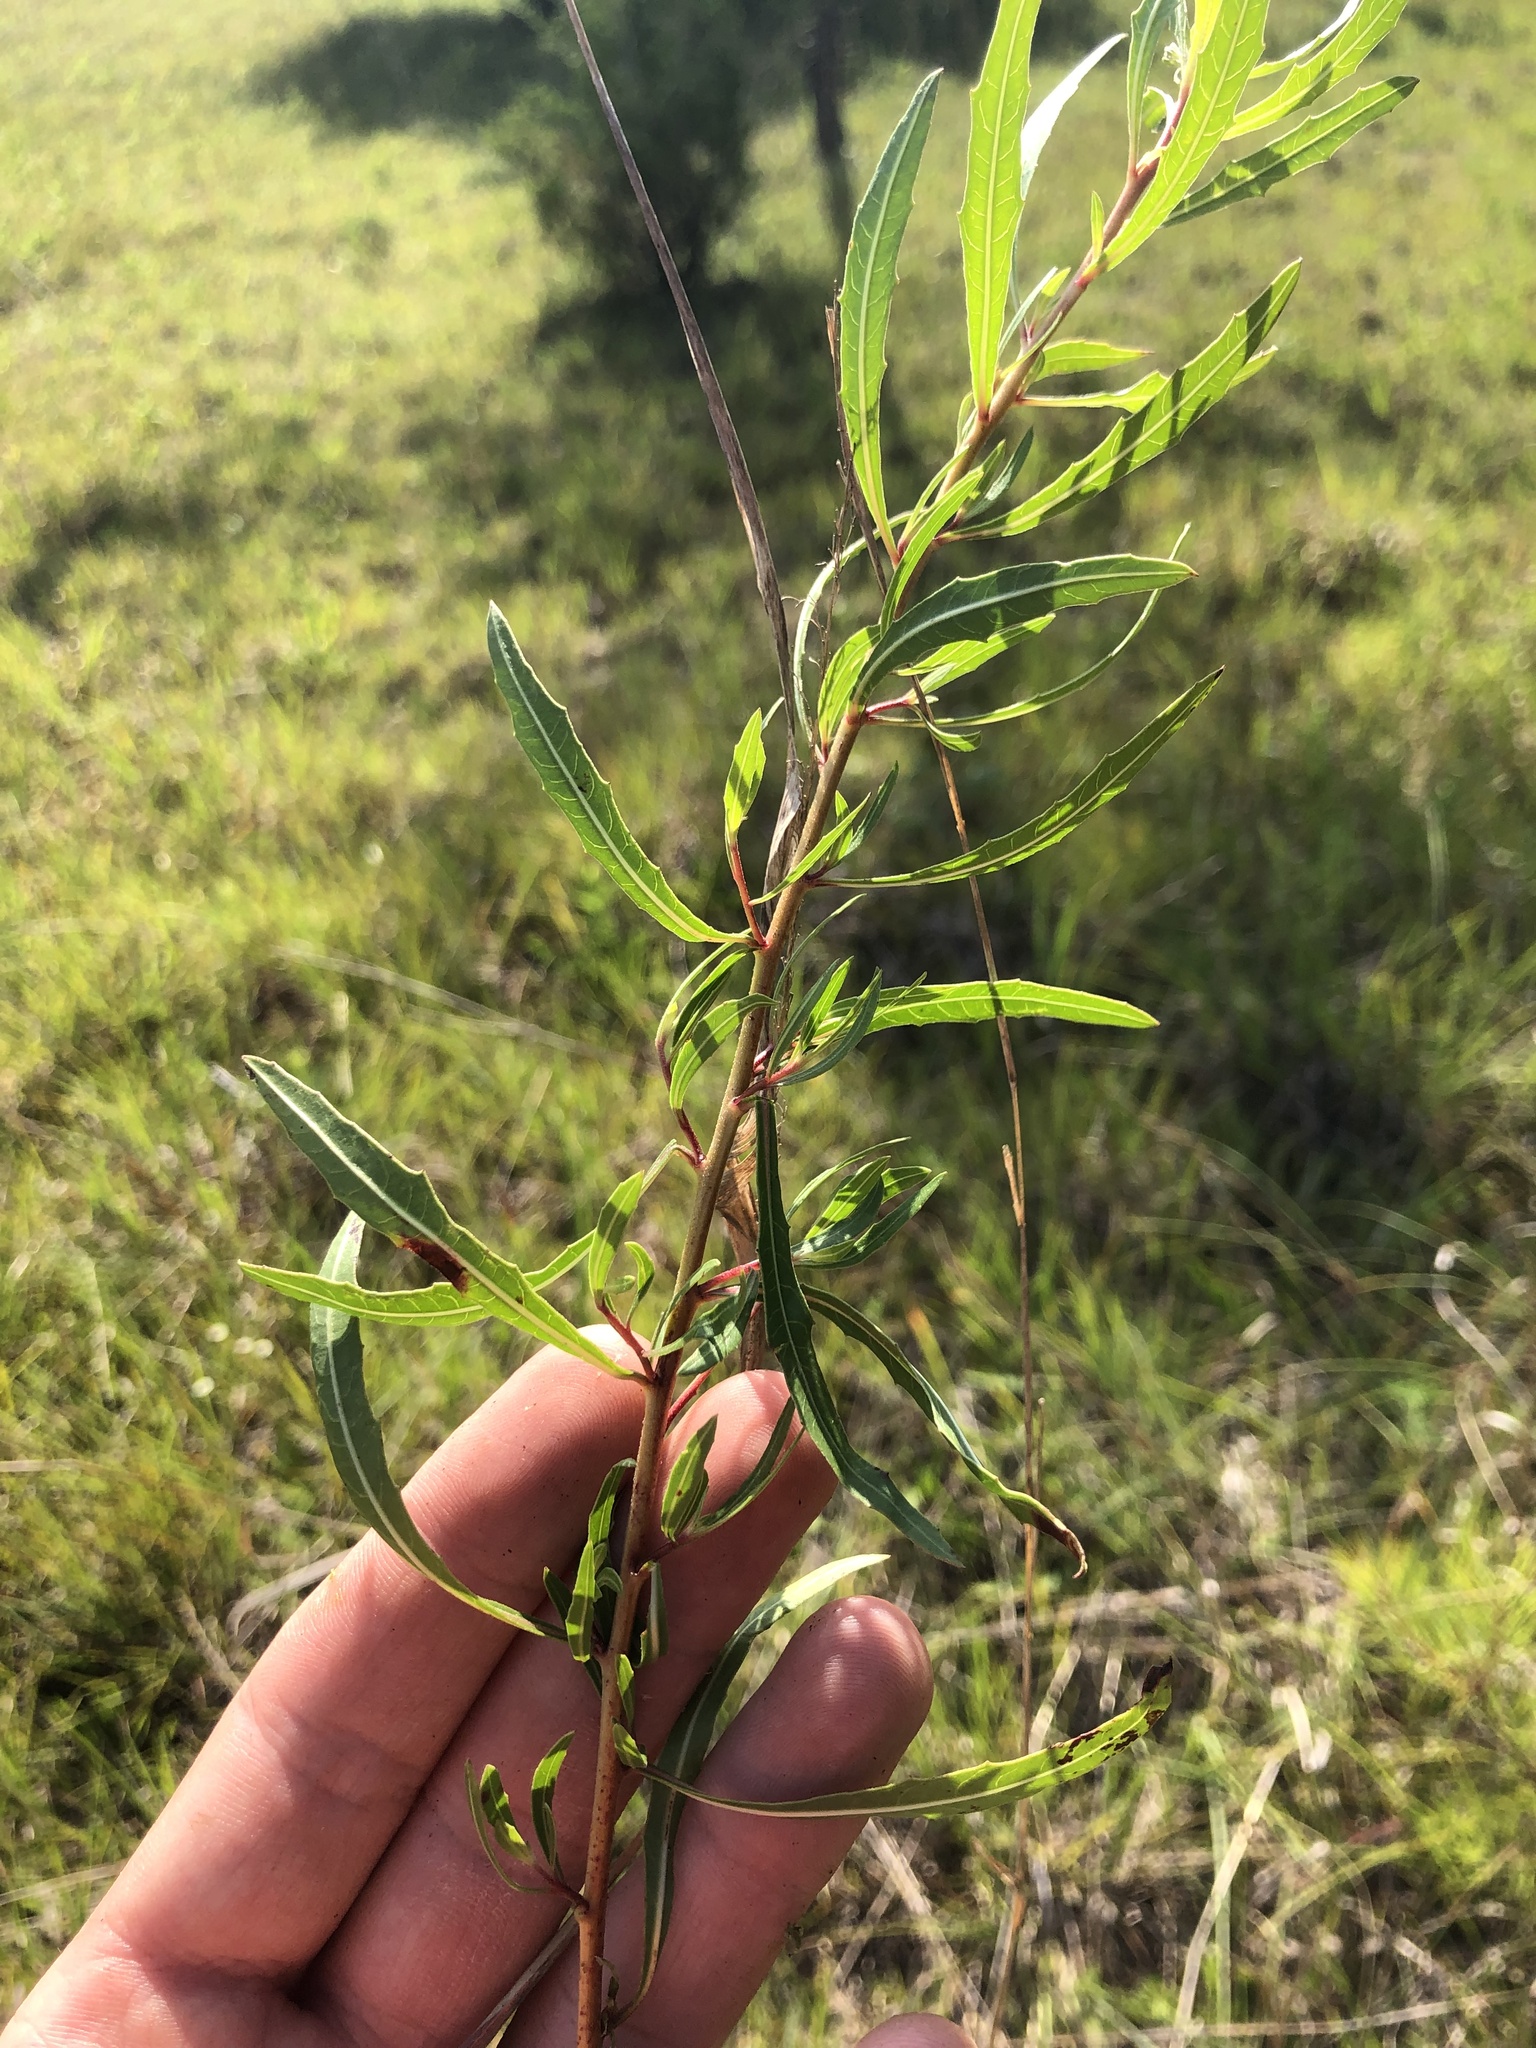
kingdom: Plantae
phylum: Tracheophyta
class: Magnoliopsida
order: Myrtales
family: Onagraceae
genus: Oenothera
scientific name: Oenothera filipes
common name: Slenderstalk beeblossom
